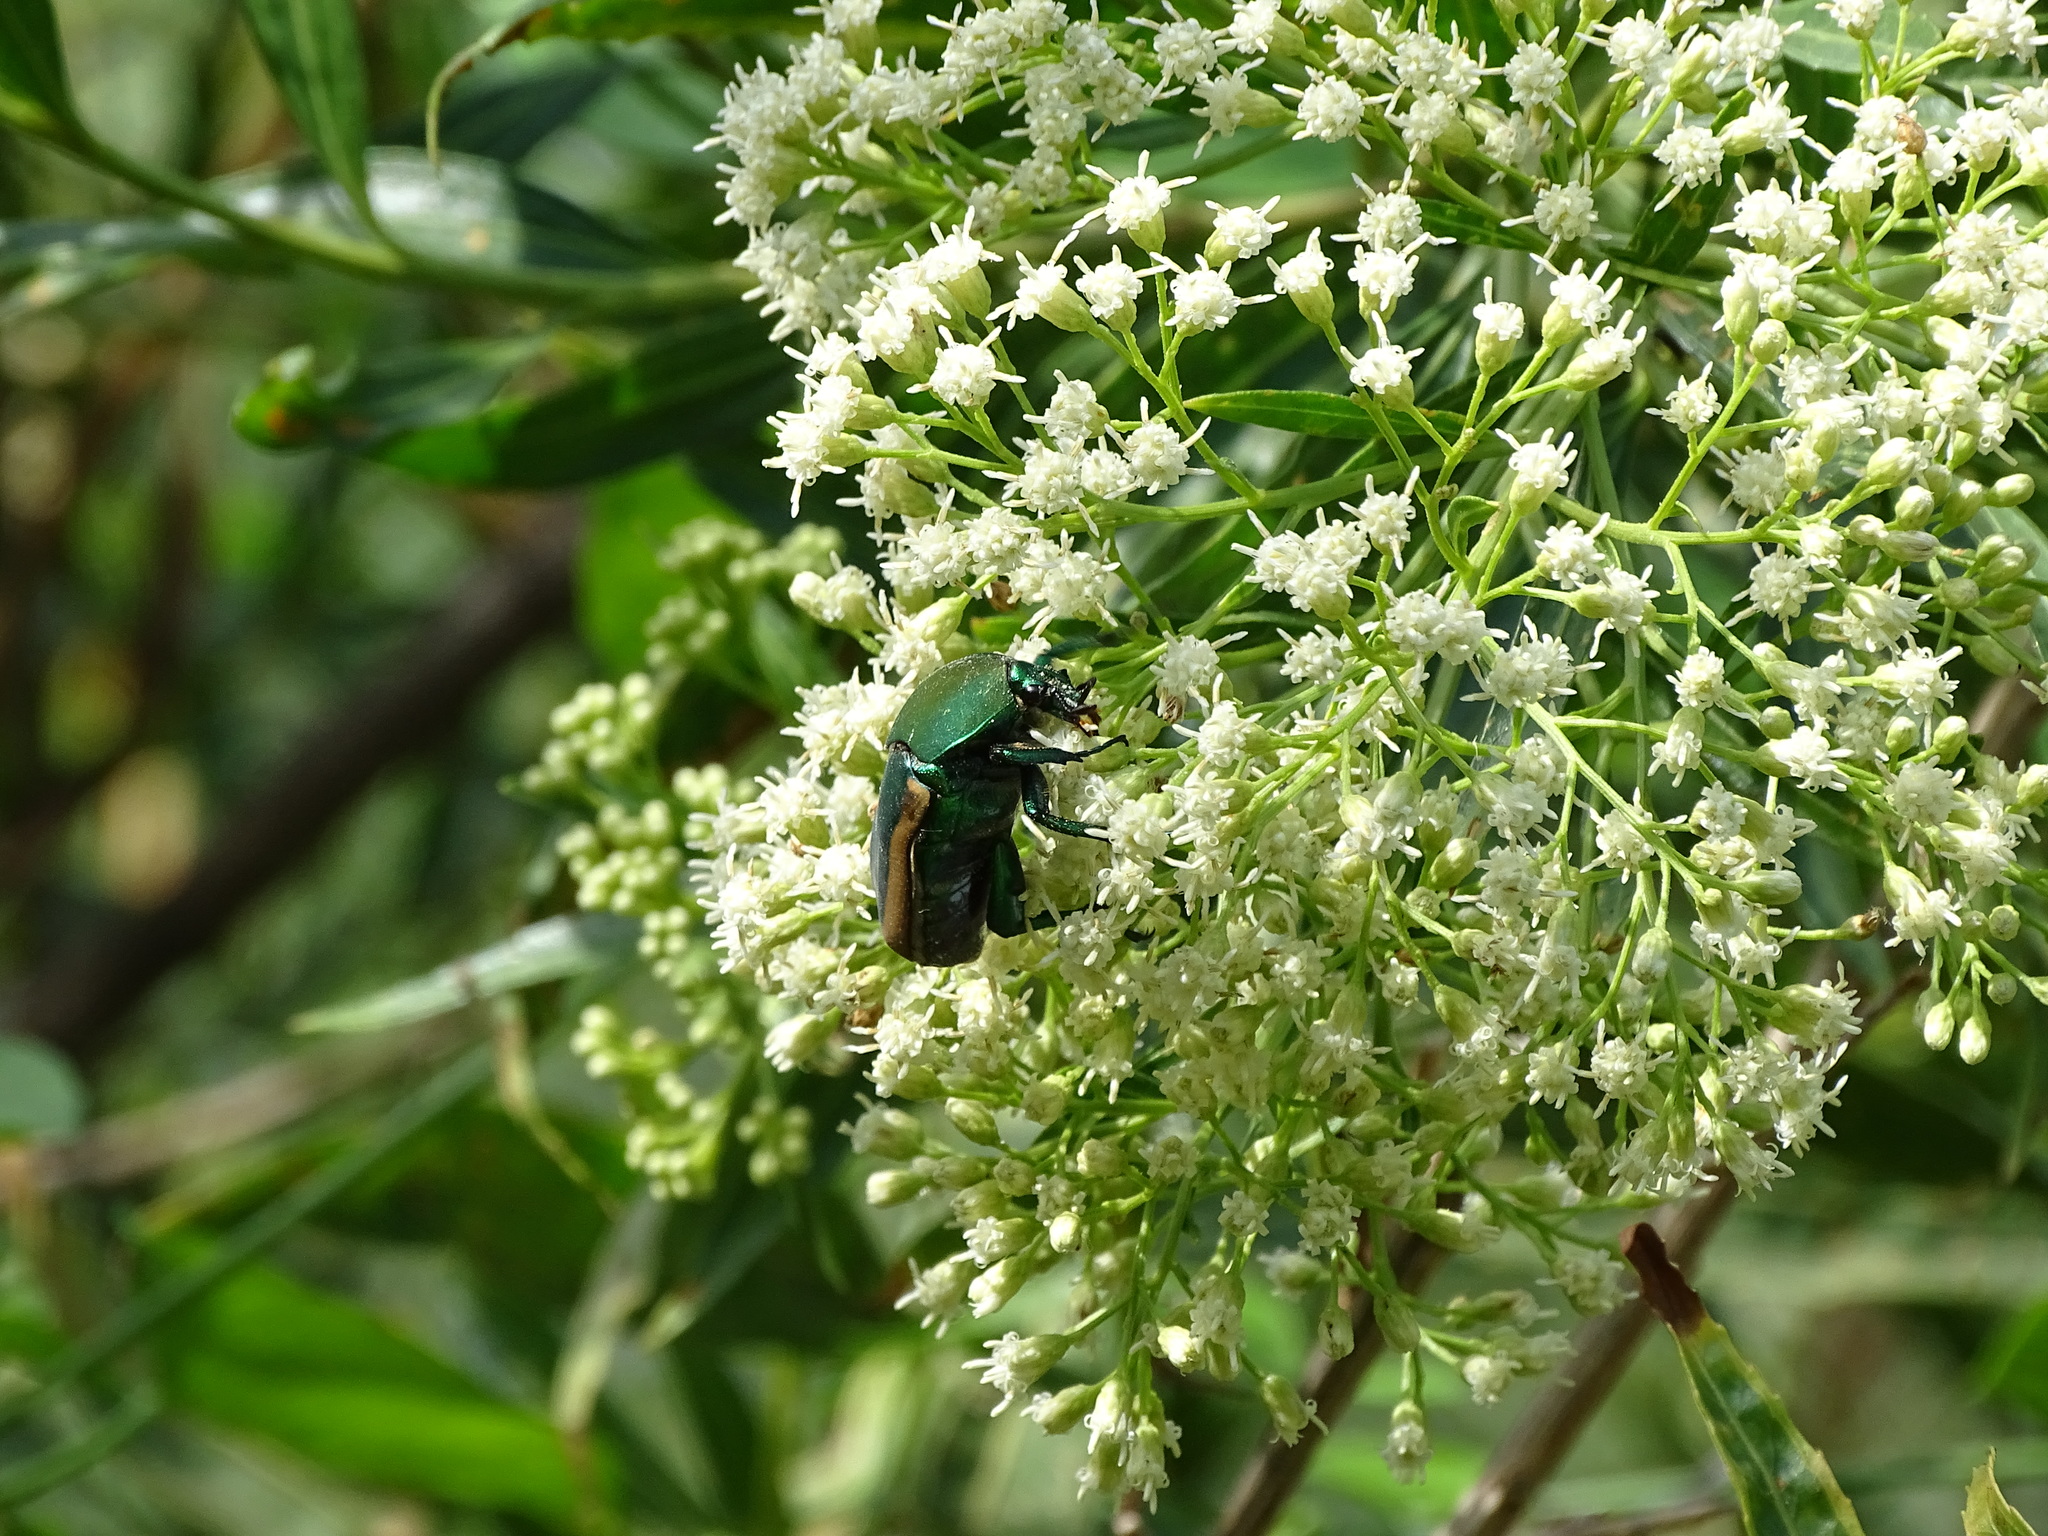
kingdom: Animalia
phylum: Arthropoda
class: Insecta
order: Coleoptera
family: Scarabaeidae
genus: Cotinis
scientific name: Cotinis mutabilis
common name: Figeater beetle
